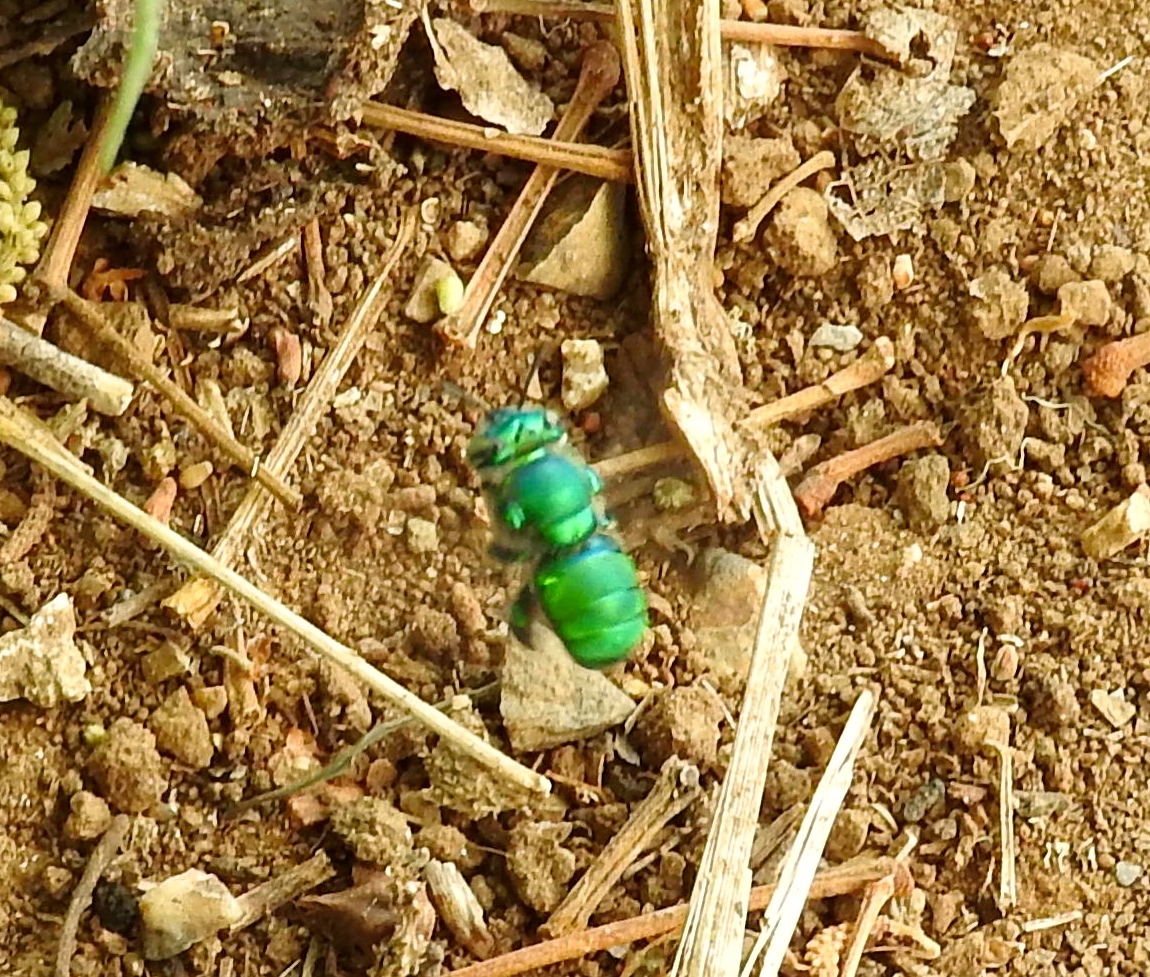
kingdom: Animalia
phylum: Arthropoda
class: Insecta
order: Hymenoptera
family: Apidae
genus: Euglossa
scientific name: Euglossa
